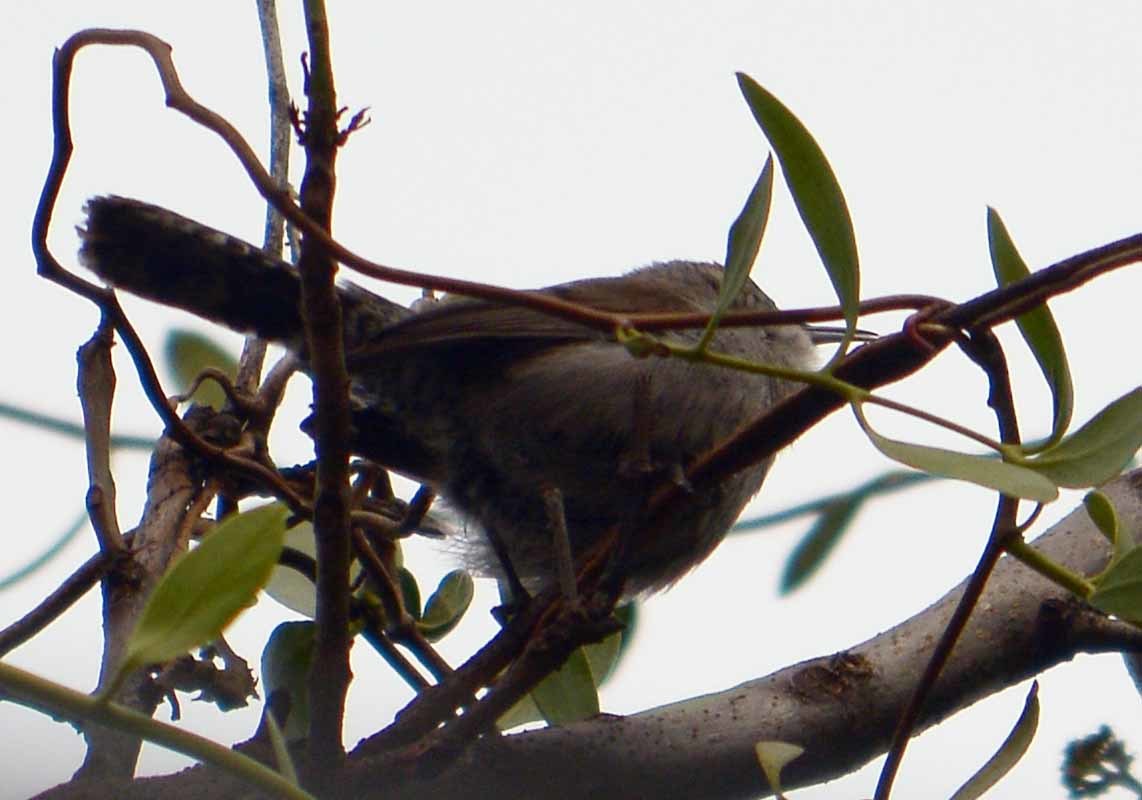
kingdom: Animalia
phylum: Chordata
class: Aves
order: Passeriformes
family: Troglodytidae
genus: Thryomanes
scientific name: Thryomanes bewickii
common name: Bewick's wren
